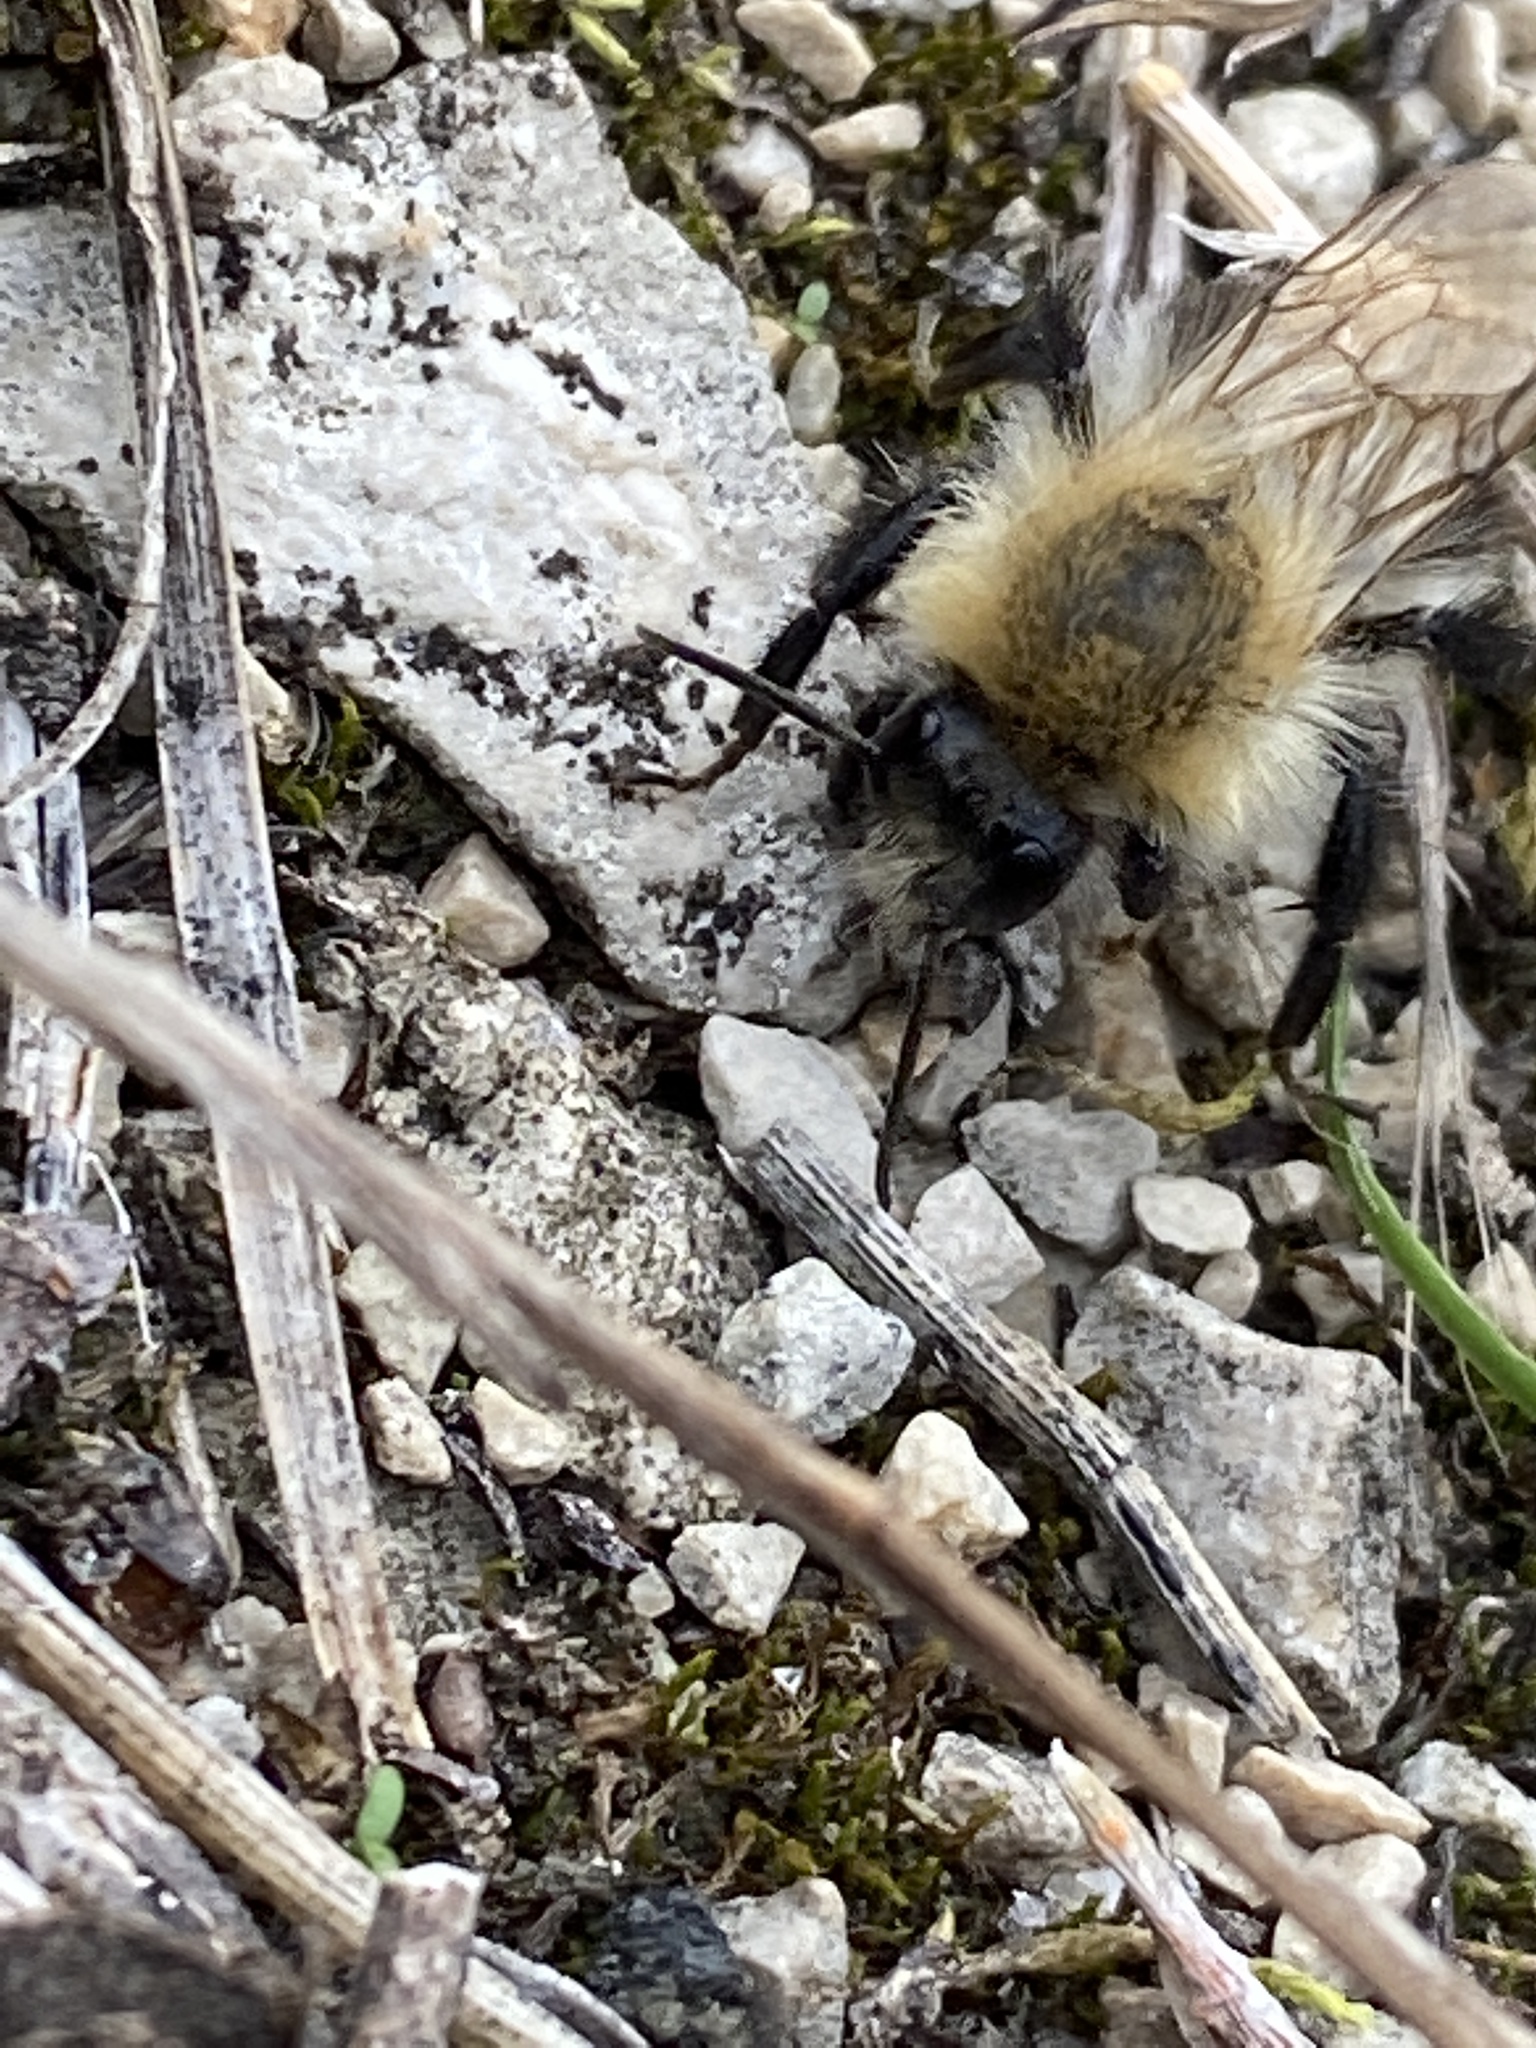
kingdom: Animalia
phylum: Arthropoda
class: Insecta
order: Hymenoptera
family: Apidae
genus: Bombus
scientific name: Bombus pascuorum
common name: Common carder bee
